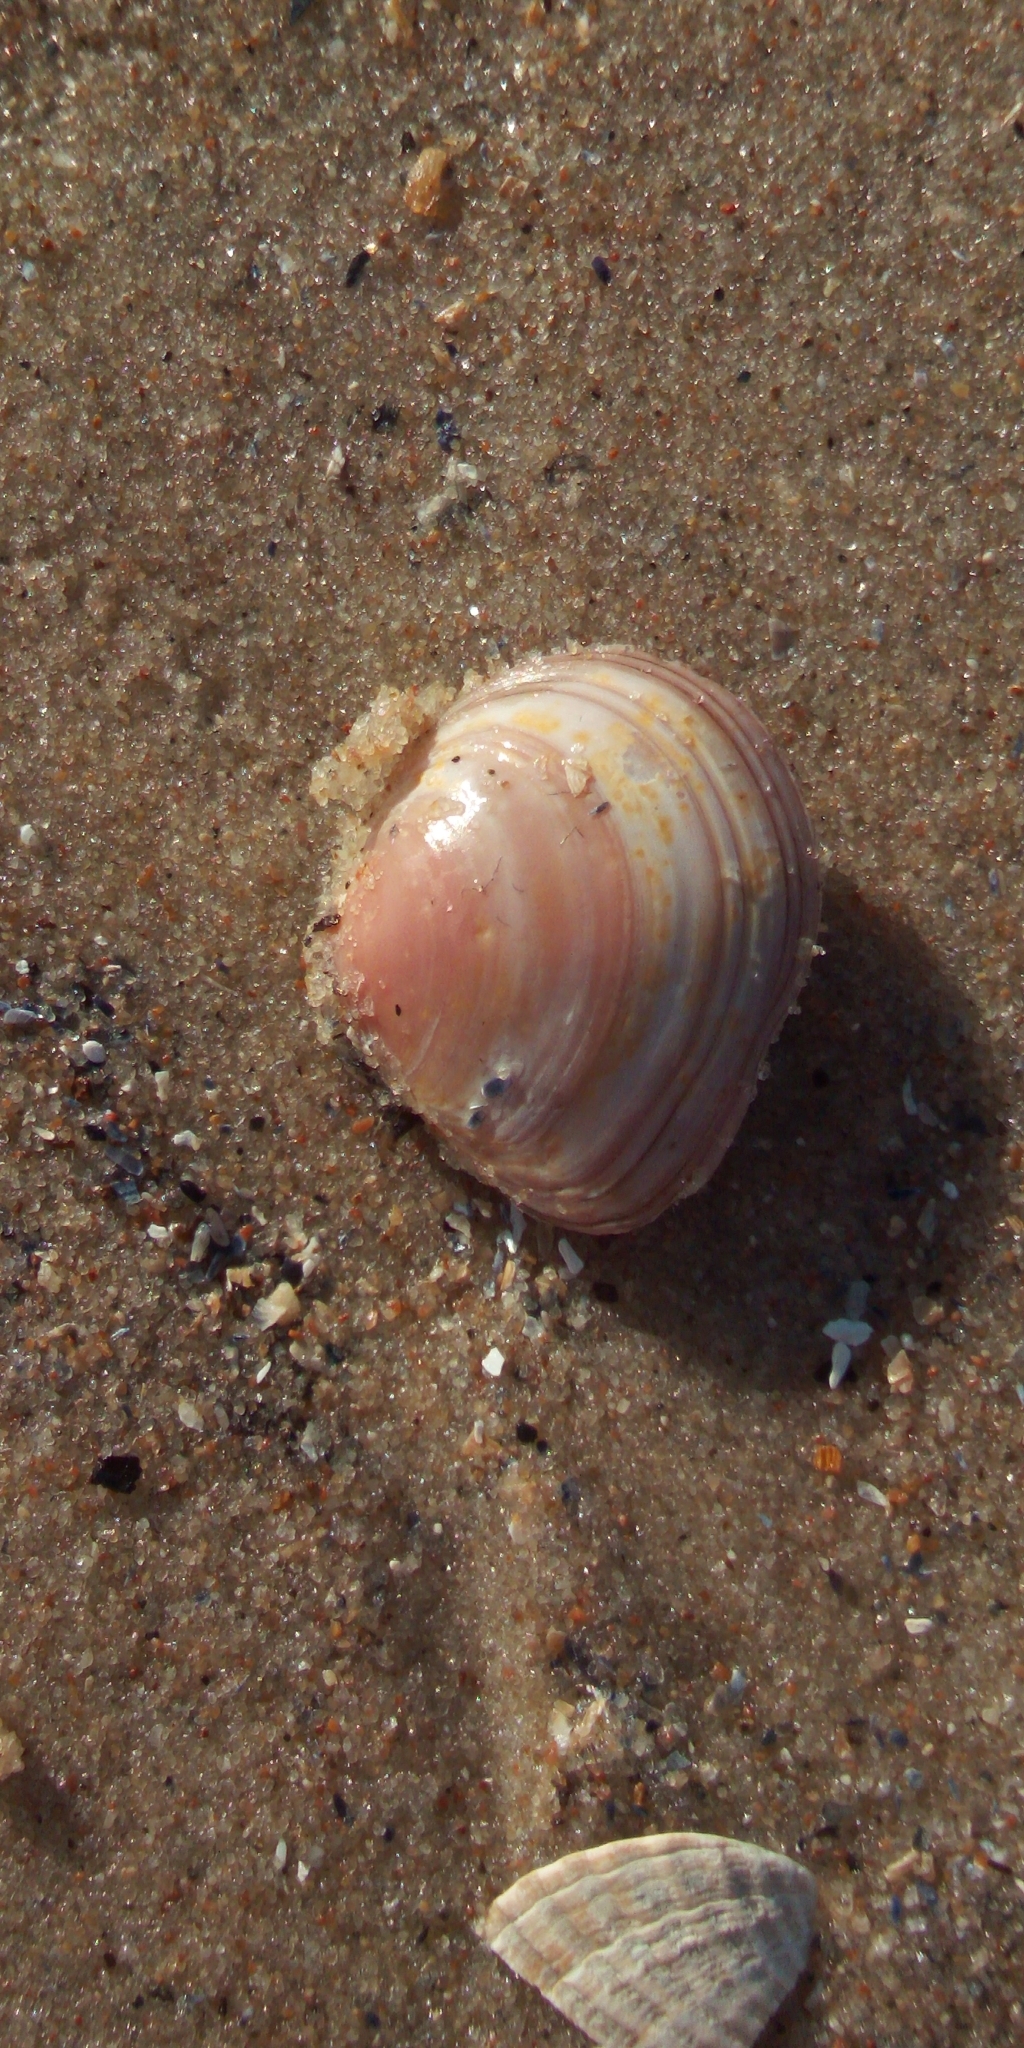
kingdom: Animalia
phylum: Mollusca
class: Bivalvia
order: Cardiida
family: Tellinidae
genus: Macoma
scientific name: Macoma balthica
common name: Baltic tellin
